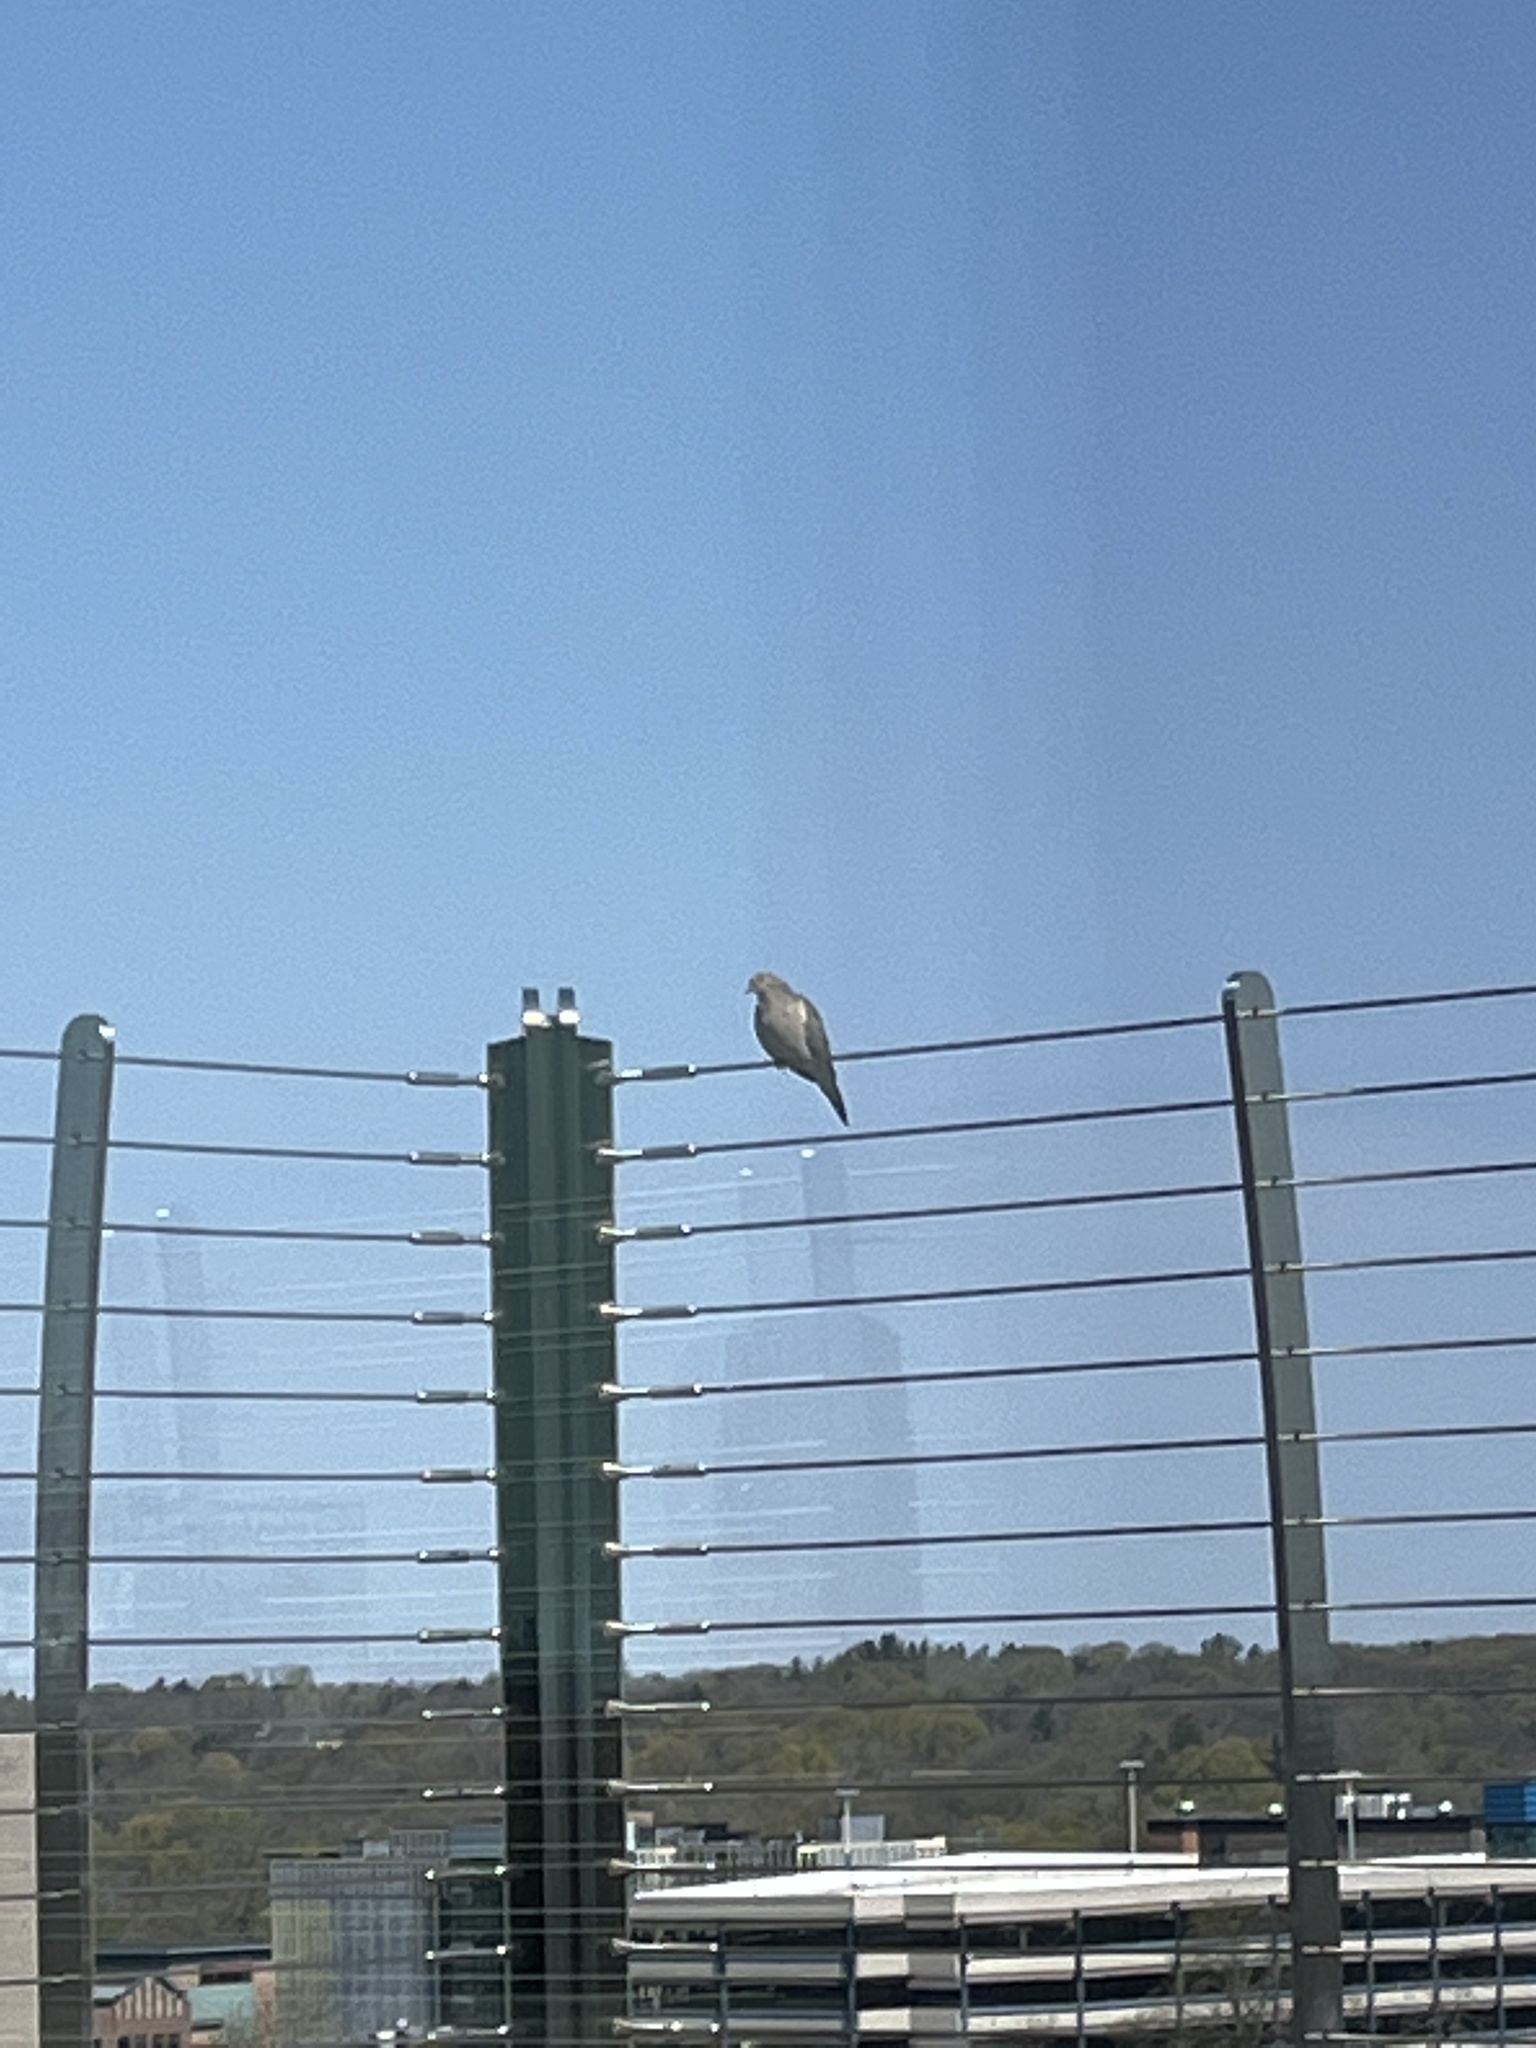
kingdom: Animalia
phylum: Chordata
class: Aves
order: Columbiformes
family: Columbidae
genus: Zenaida
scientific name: Zenaida macroura
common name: Mourning dove
